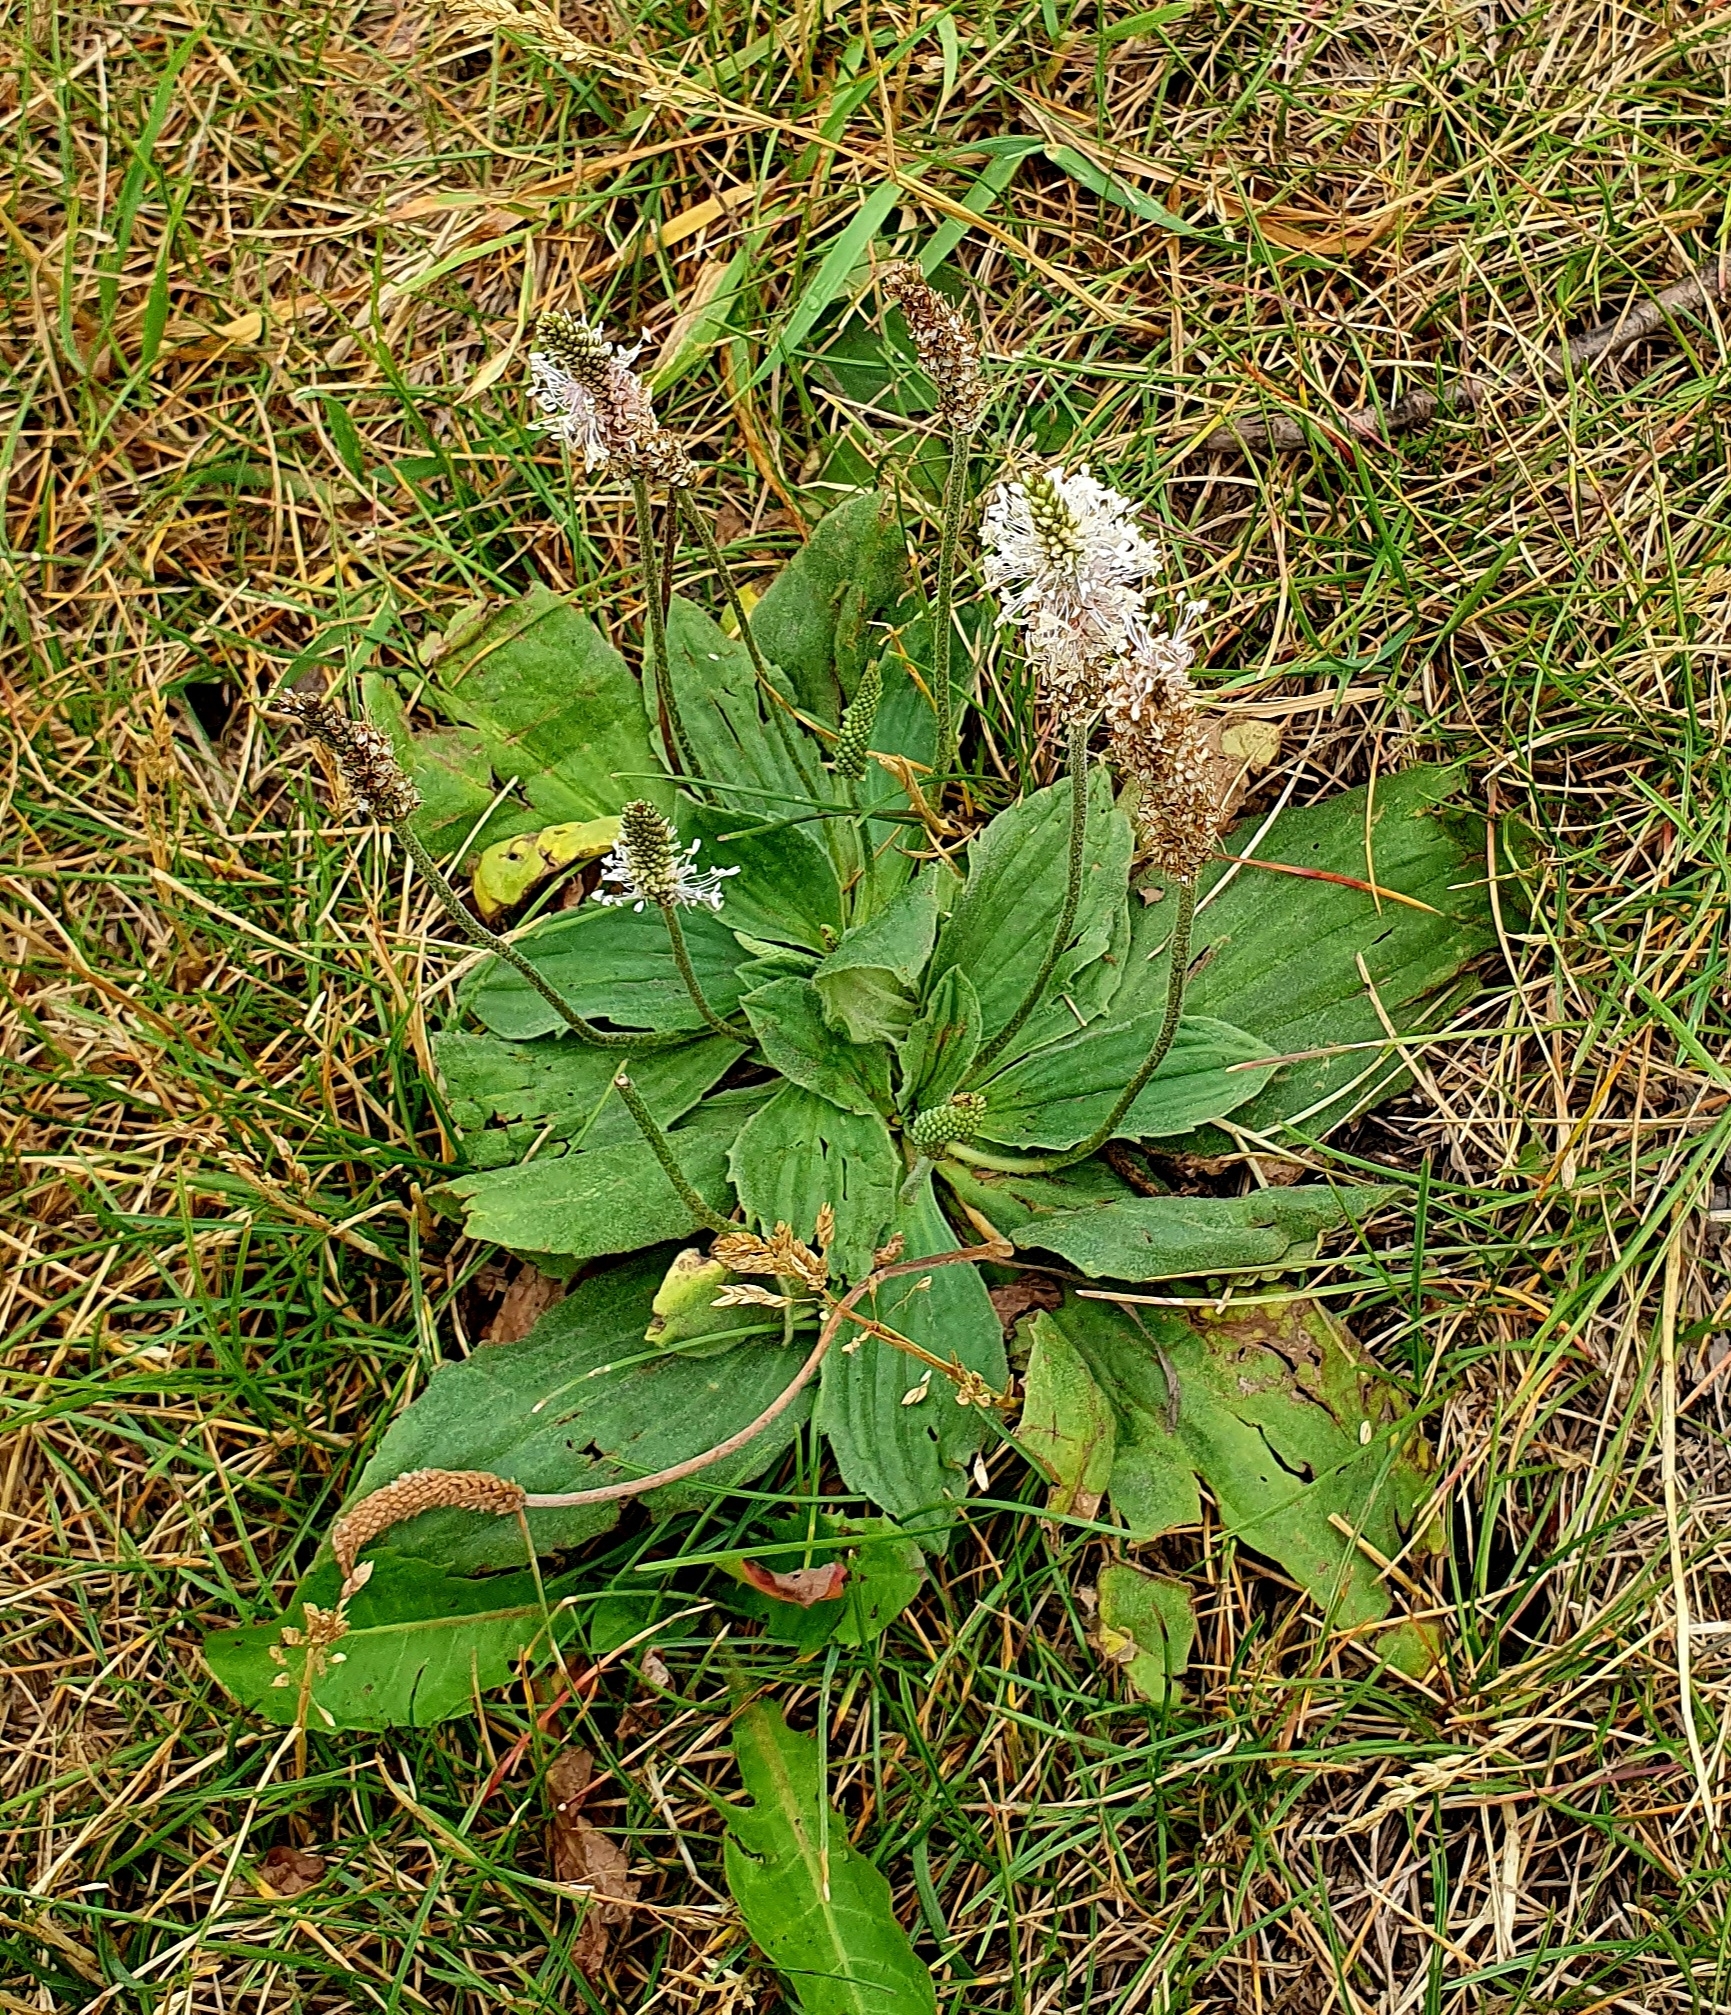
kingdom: Plantae
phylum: Tracheophyta
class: Magnoliopsida
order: Lamiales
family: Plantaginaceae
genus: Plantago
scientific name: Plantago media
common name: Hoary plantain
